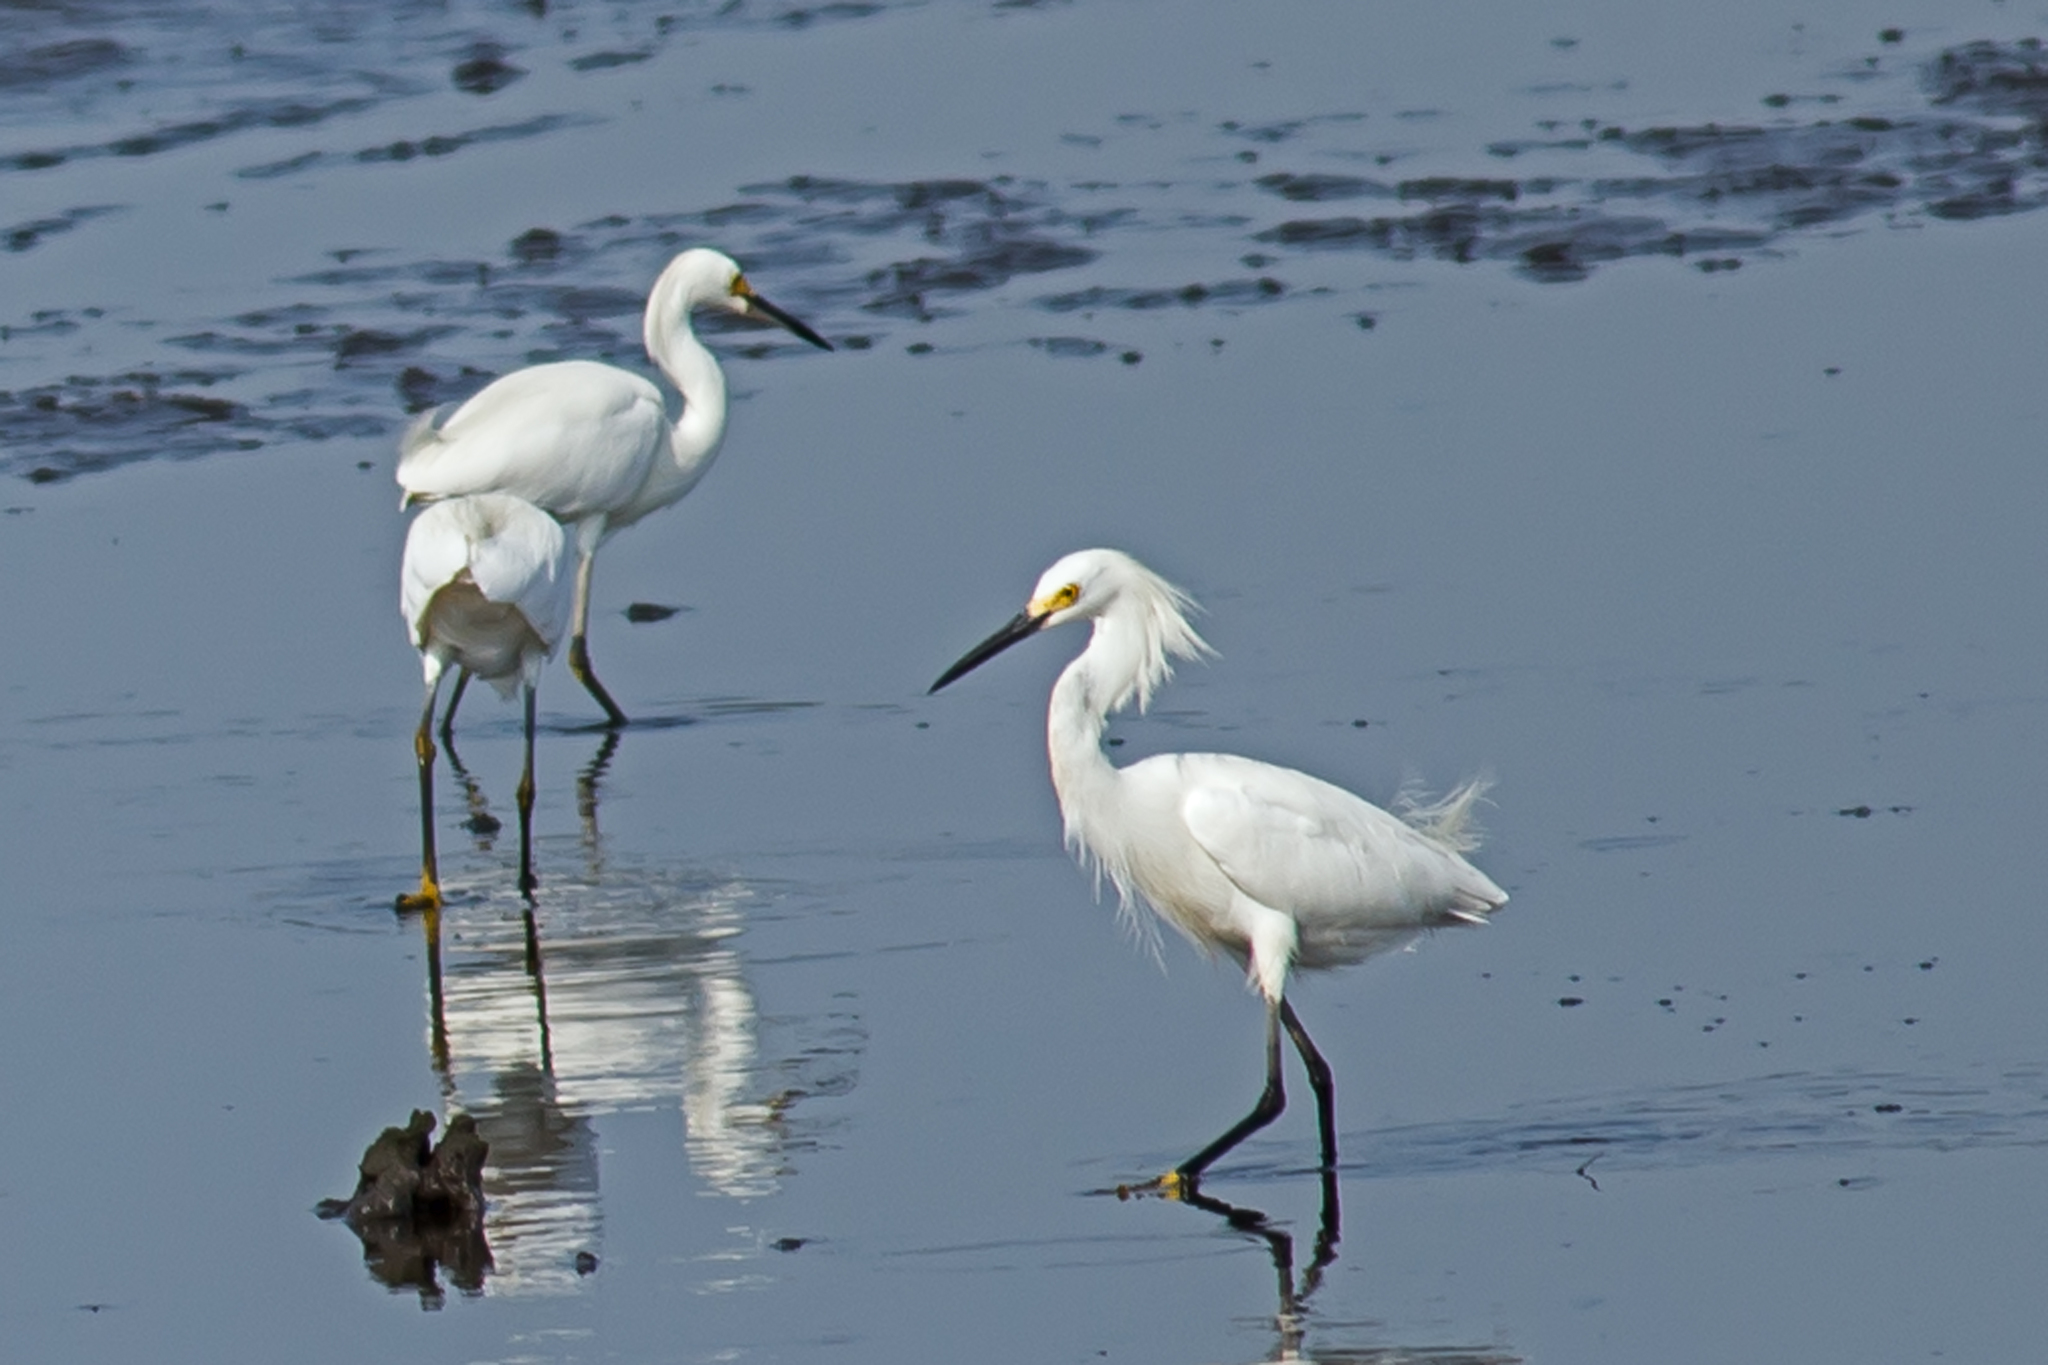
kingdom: Animalia
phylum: Chordata
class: Aves
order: Pelecaniformes
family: Ardeidae
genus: Egretta
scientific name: Egretta thula
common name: Snowy egret
